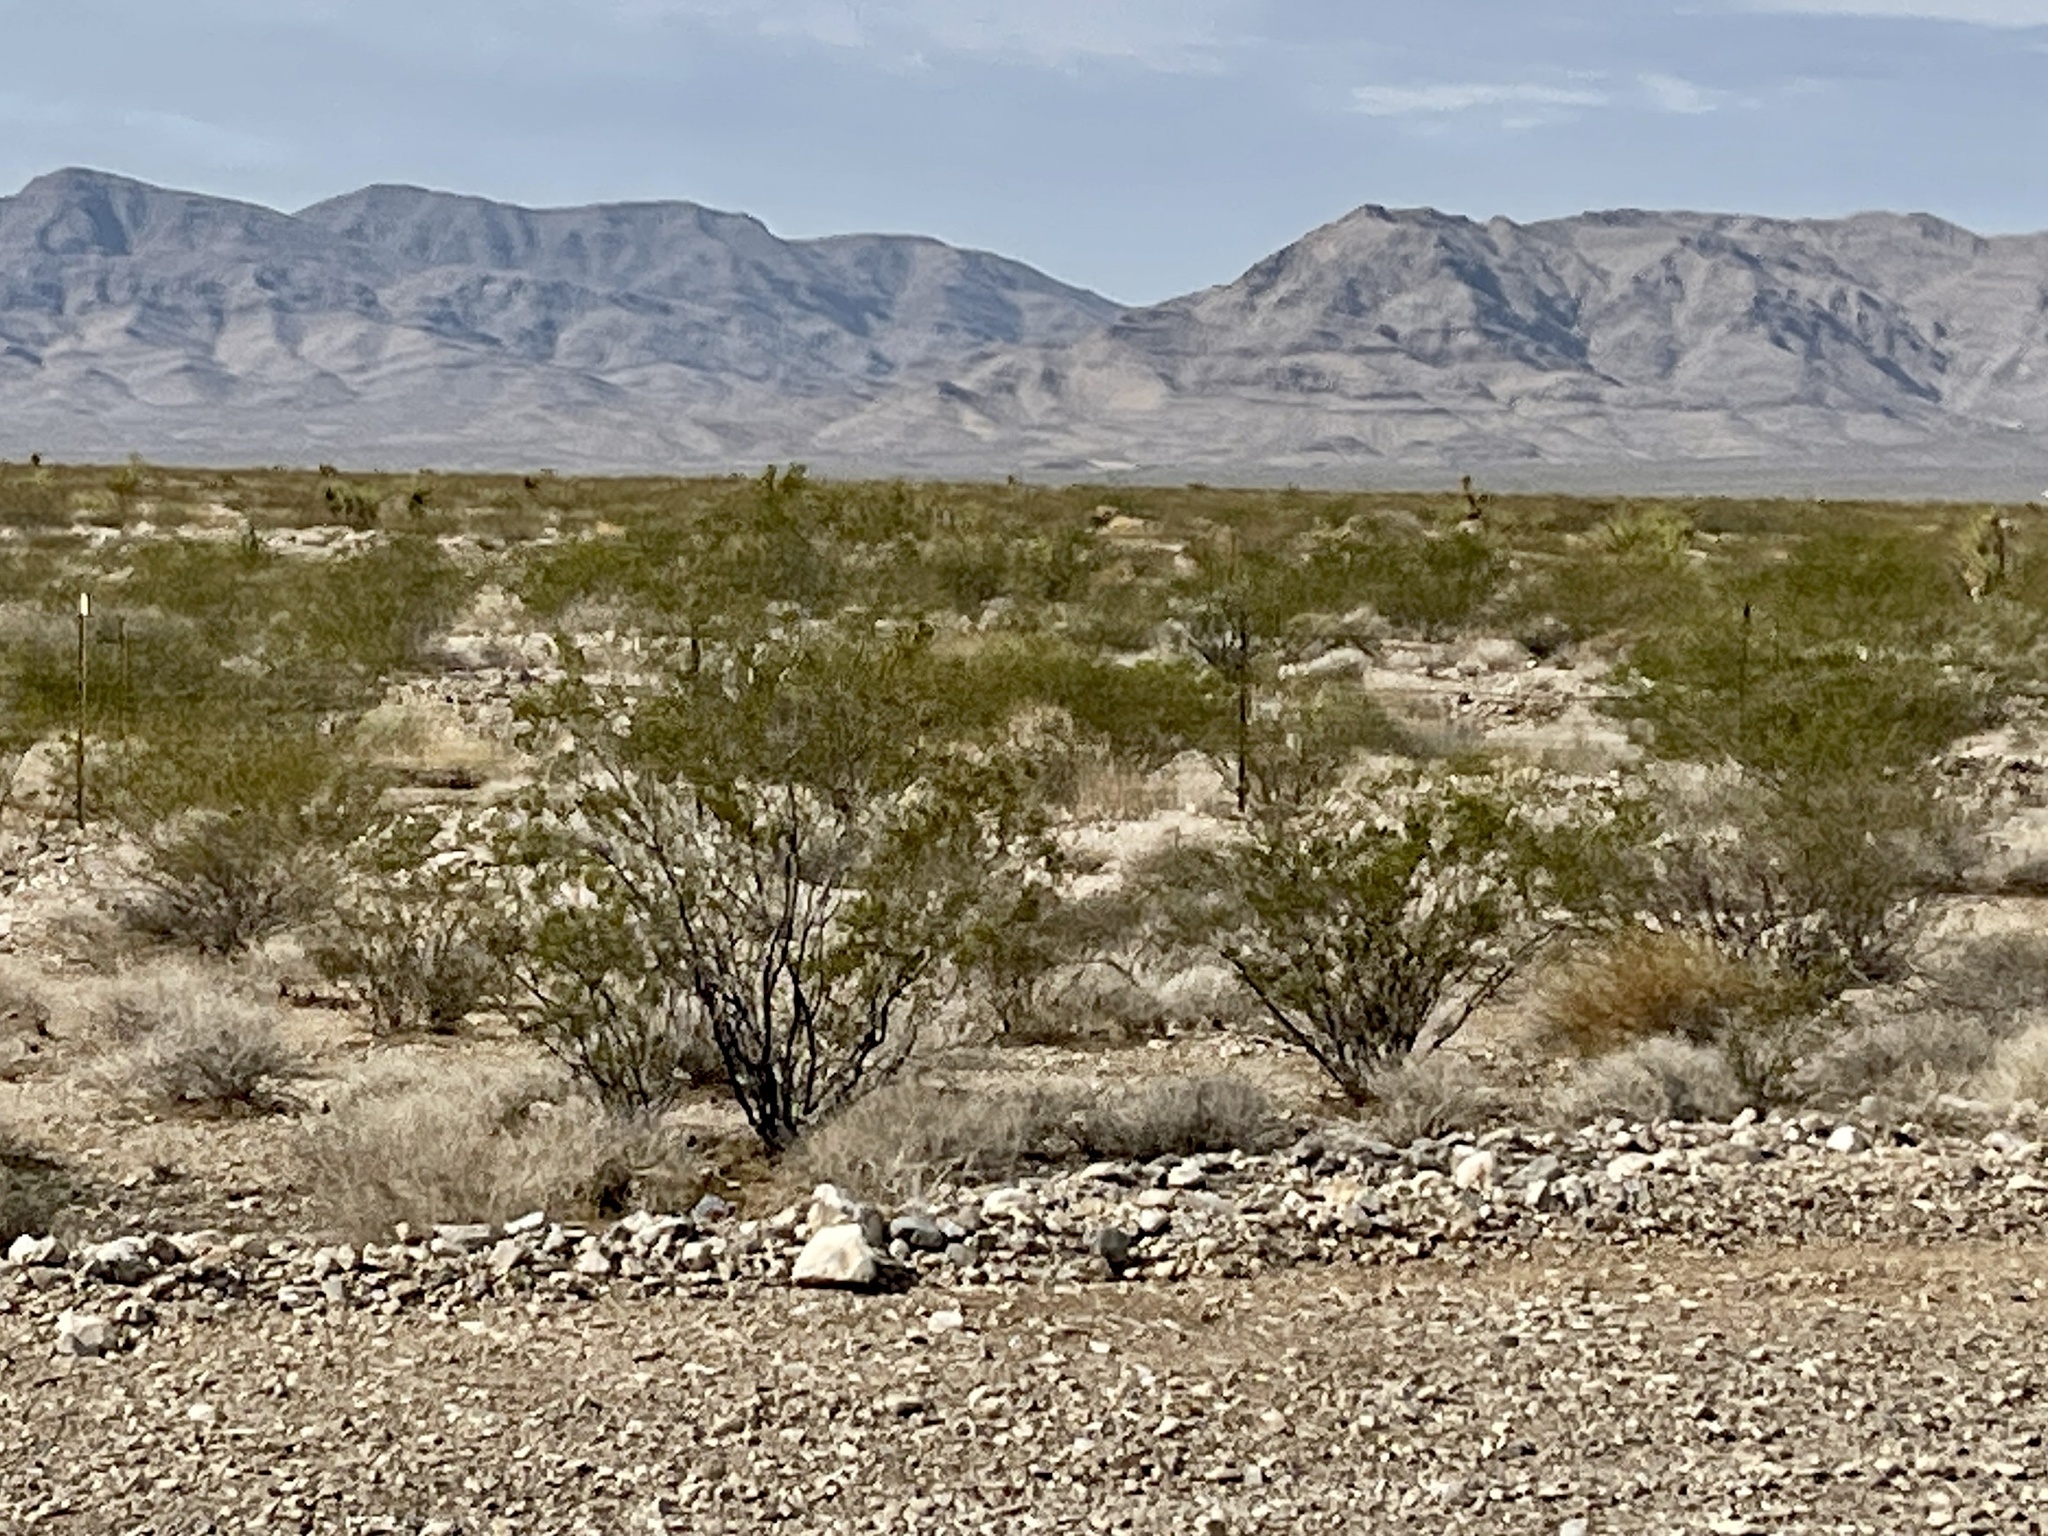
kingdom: Plantae
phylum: Tracheophyta
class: Magnoliopsida
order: Zygophyllales
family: Zygophyllaceae
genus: Larrea
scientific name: Larrea tridentata
